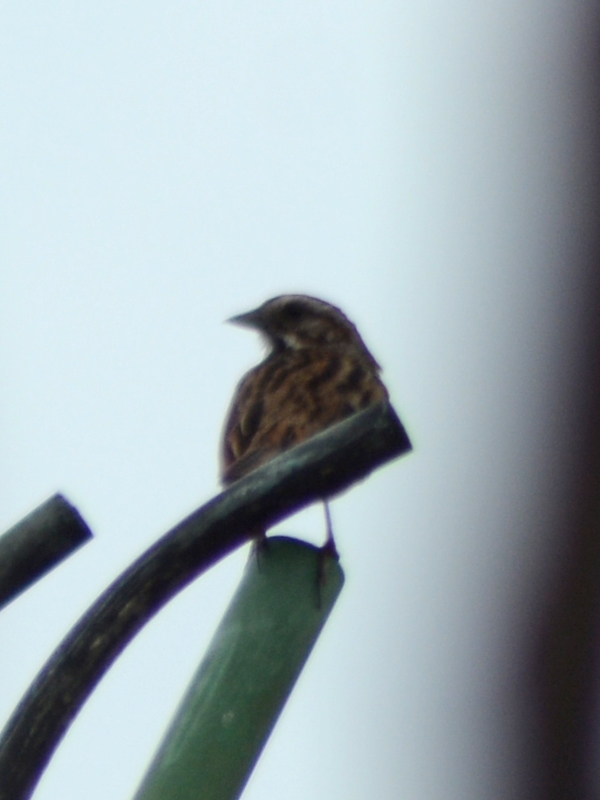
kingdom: Animalia
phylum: Chordata
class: Aves
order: Passeriformes
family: Passerellidae
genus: Melospiza
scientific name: Melospiza melodia
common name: Song sparrow
